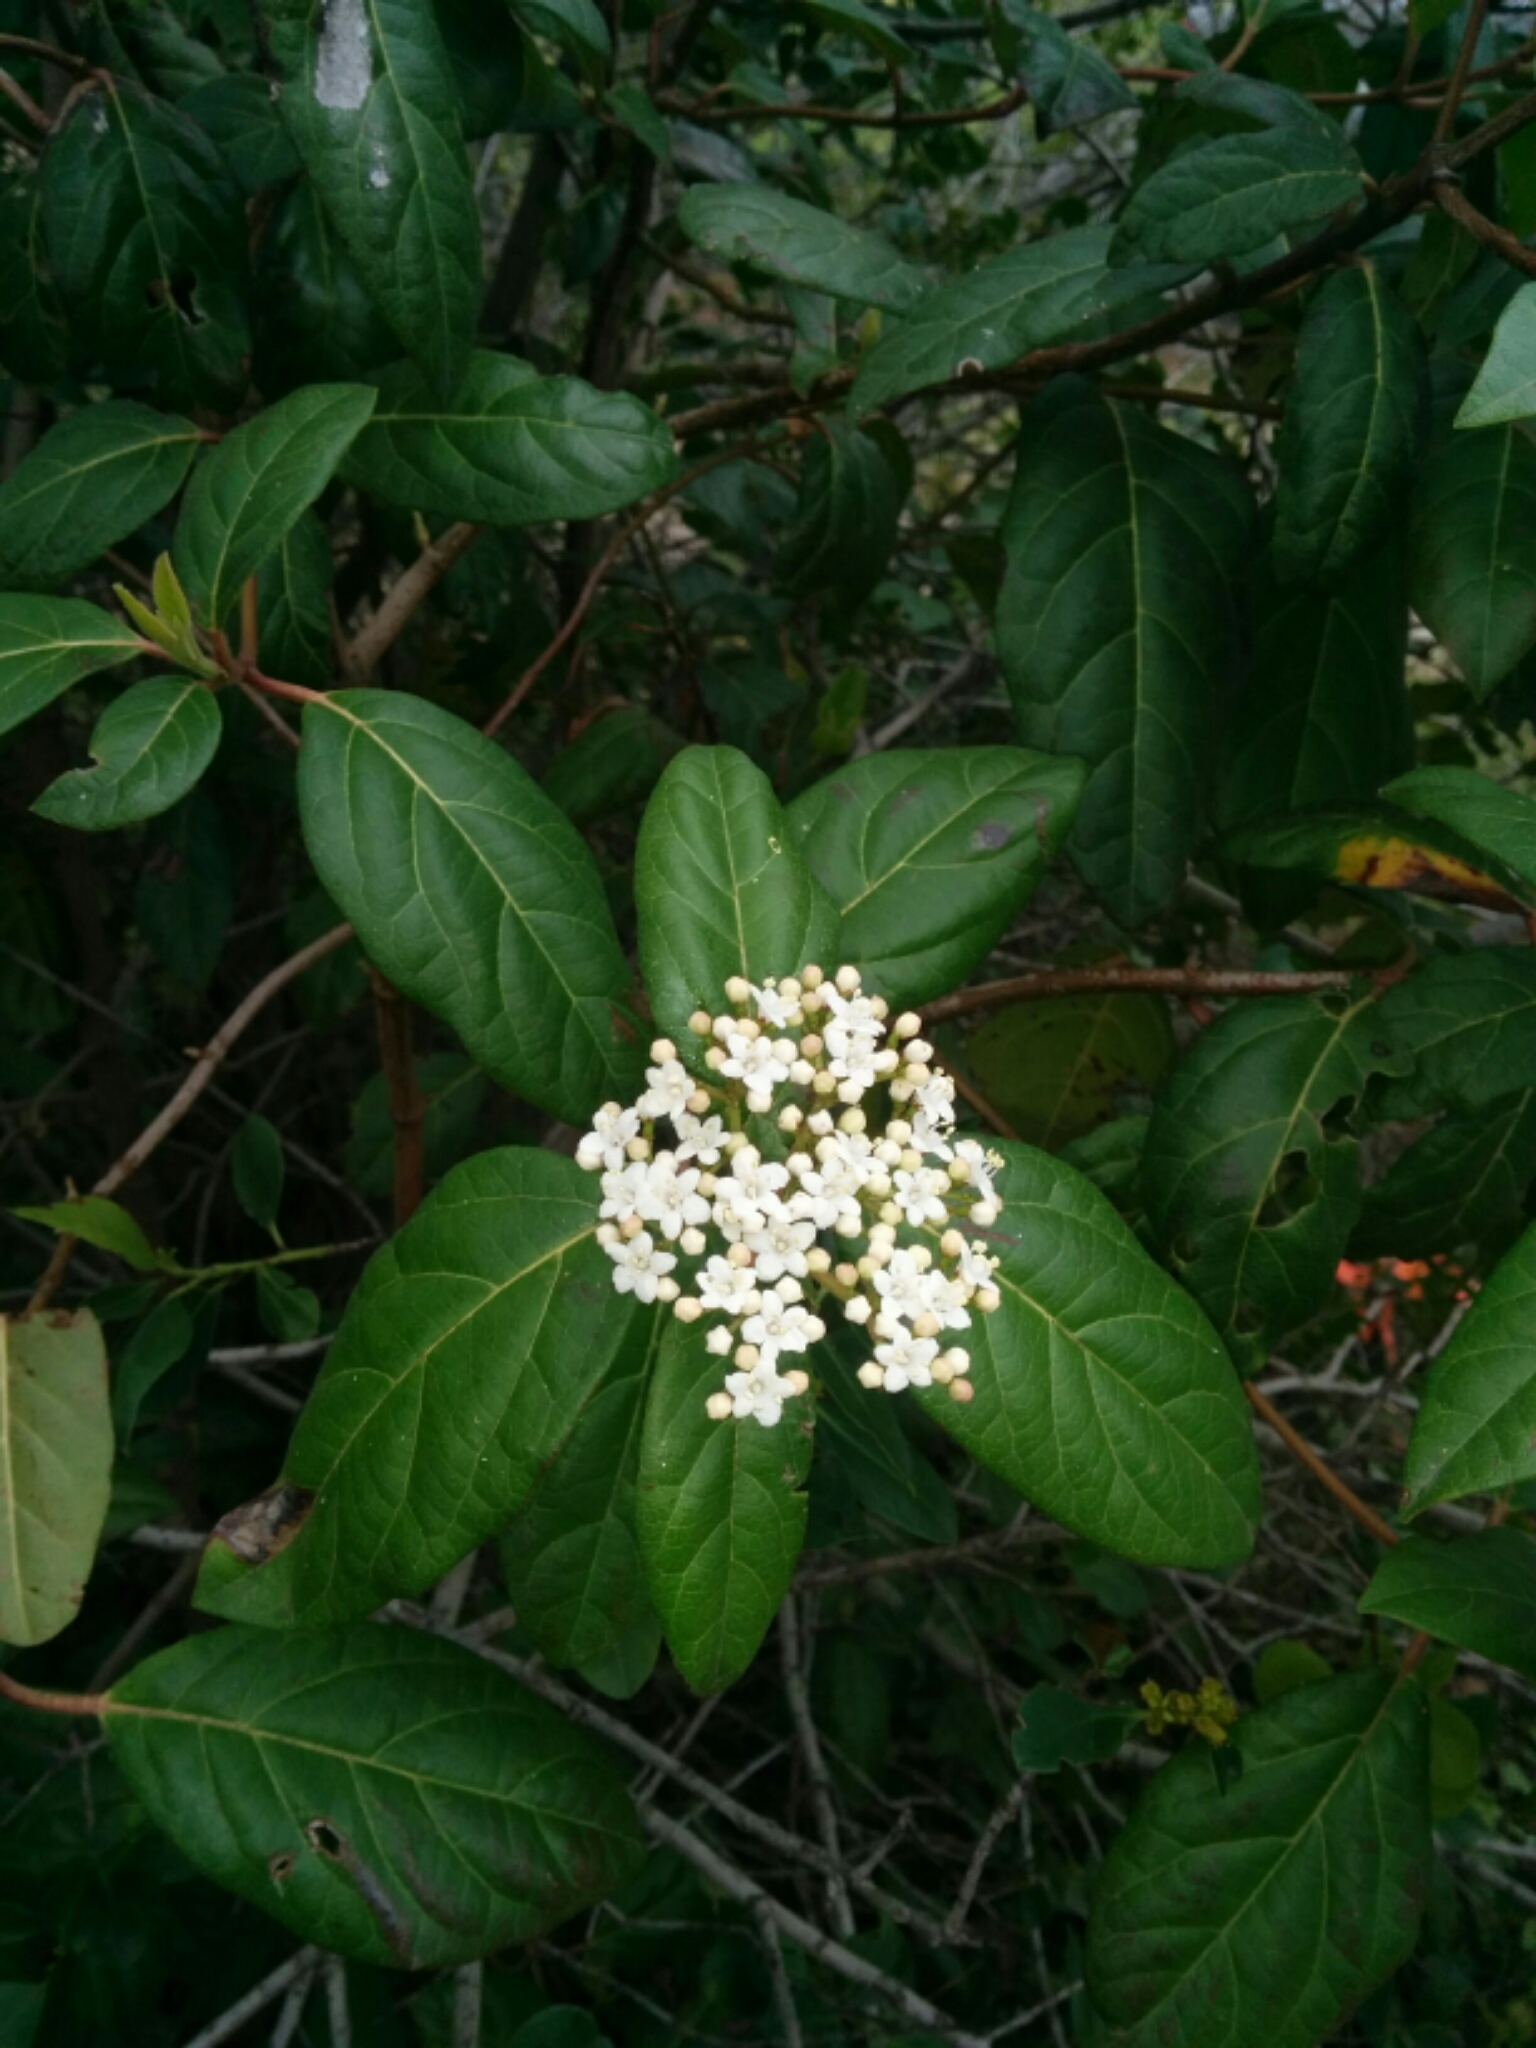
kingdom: Plantae
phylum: Tracheophyta
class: Magnoliopsida
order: Dipsacales
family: Viburnaceae
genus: Viburnum
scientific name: Viburnum tinus
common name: Laurustinus
